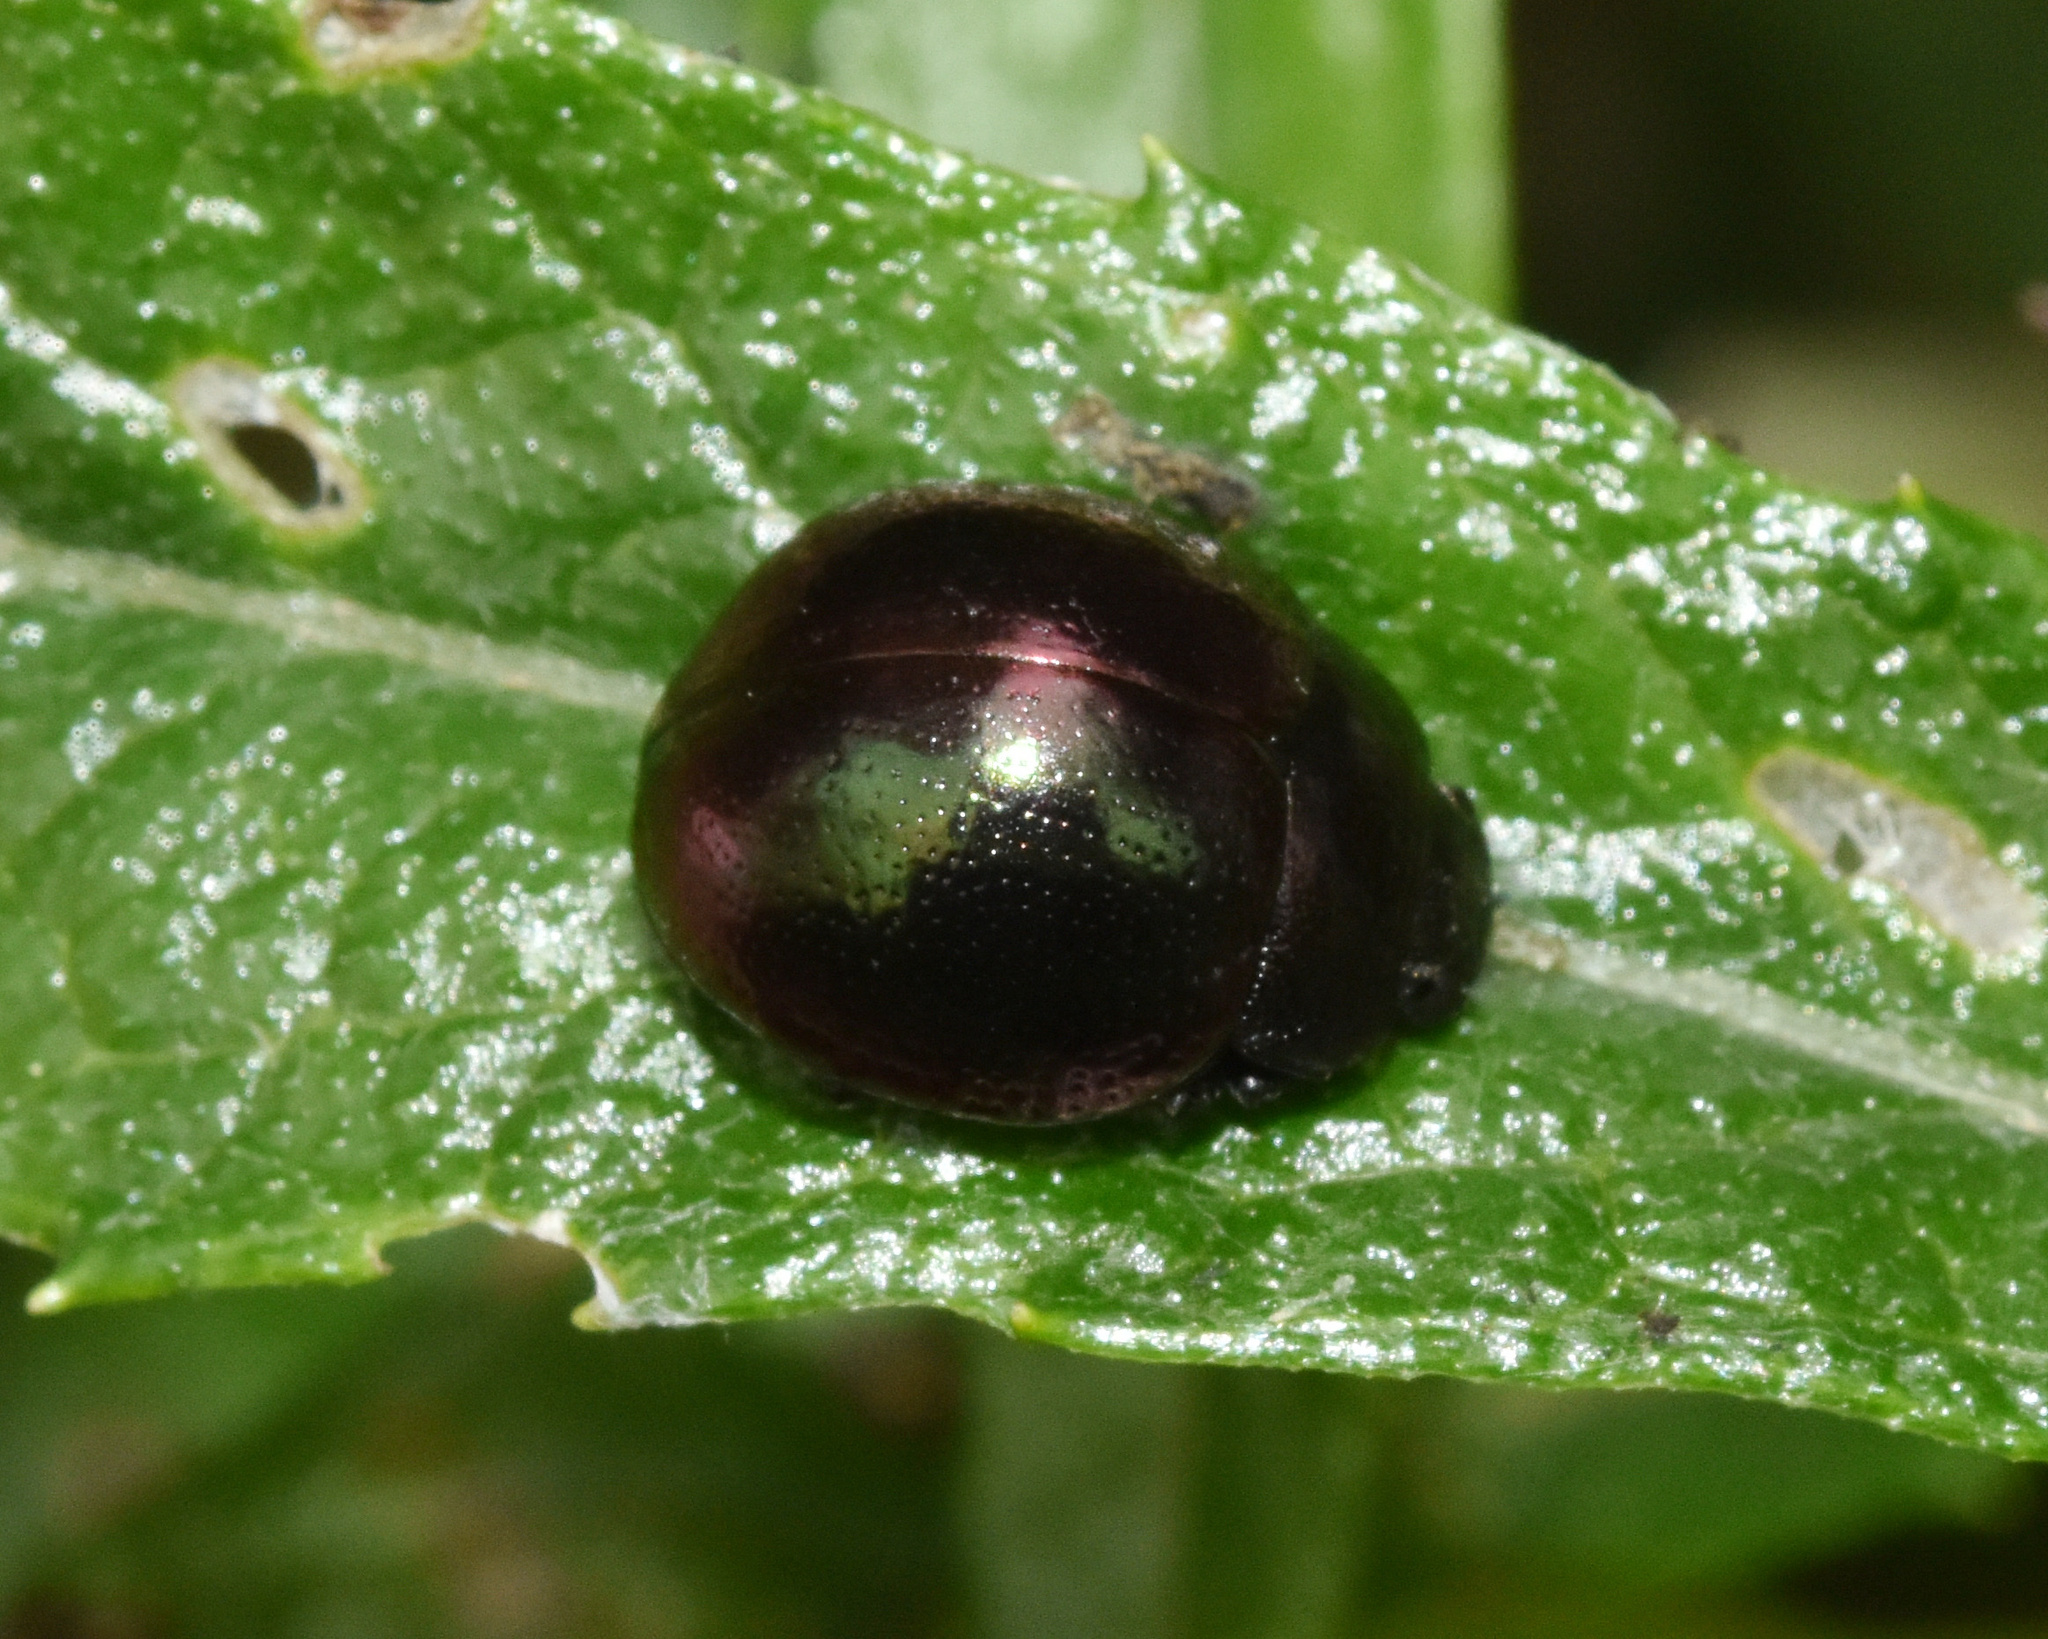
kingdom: Animalia
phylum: Arthropoda
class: Insecta
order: Coleoptera
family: Chrysomelidae
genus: Ageniosa
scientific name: Ageniosa
